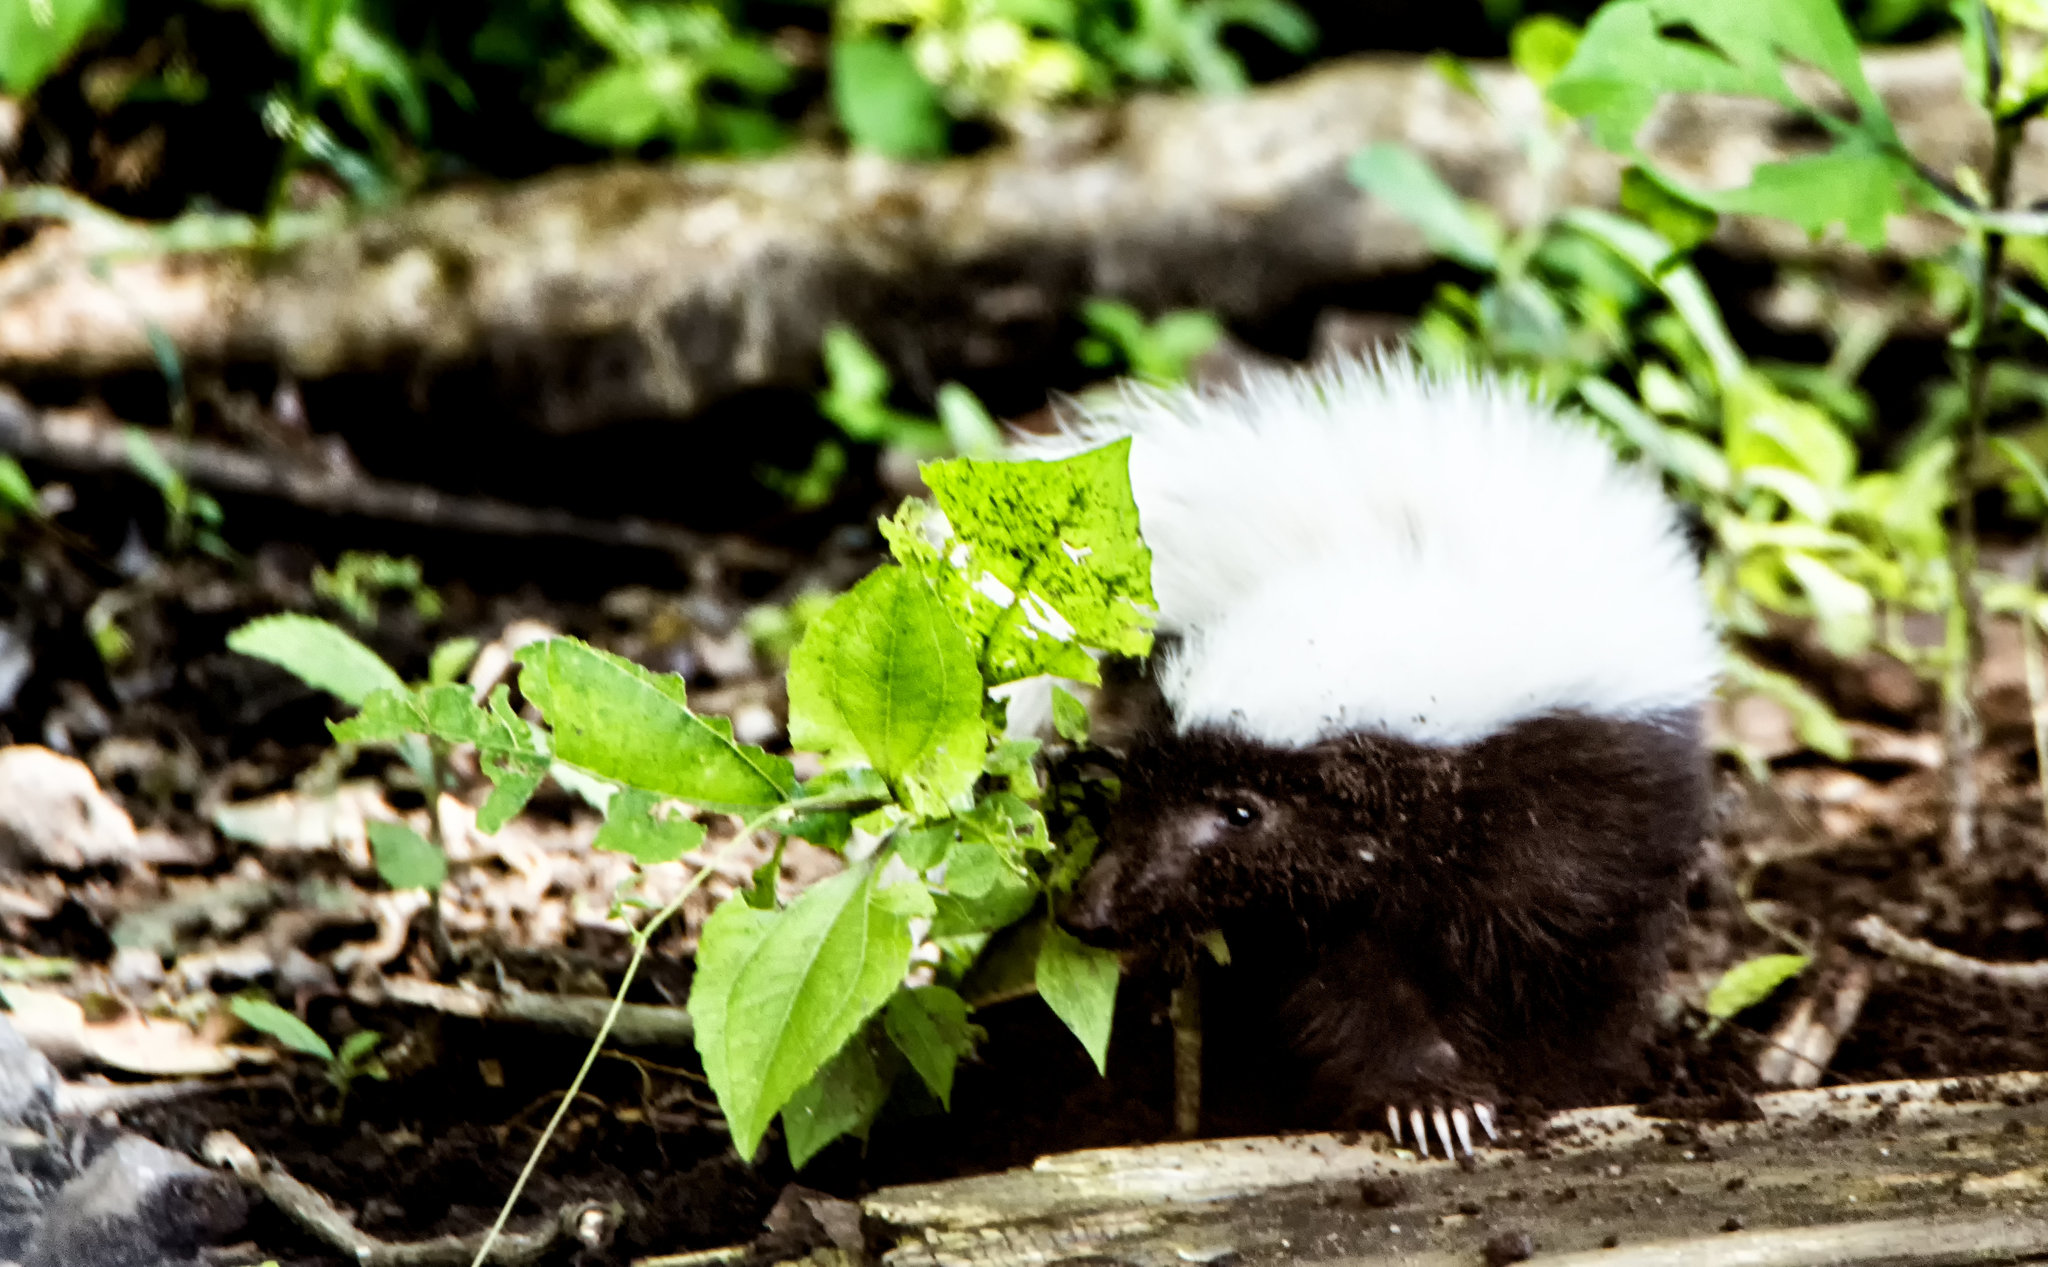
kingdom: Animalia
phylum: Chordata
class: Mammalia
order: Carnivora
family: Mephitidae
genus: Conepatus
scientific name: Conepatus leuconotus
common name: Eastern hog-nosed skunk
